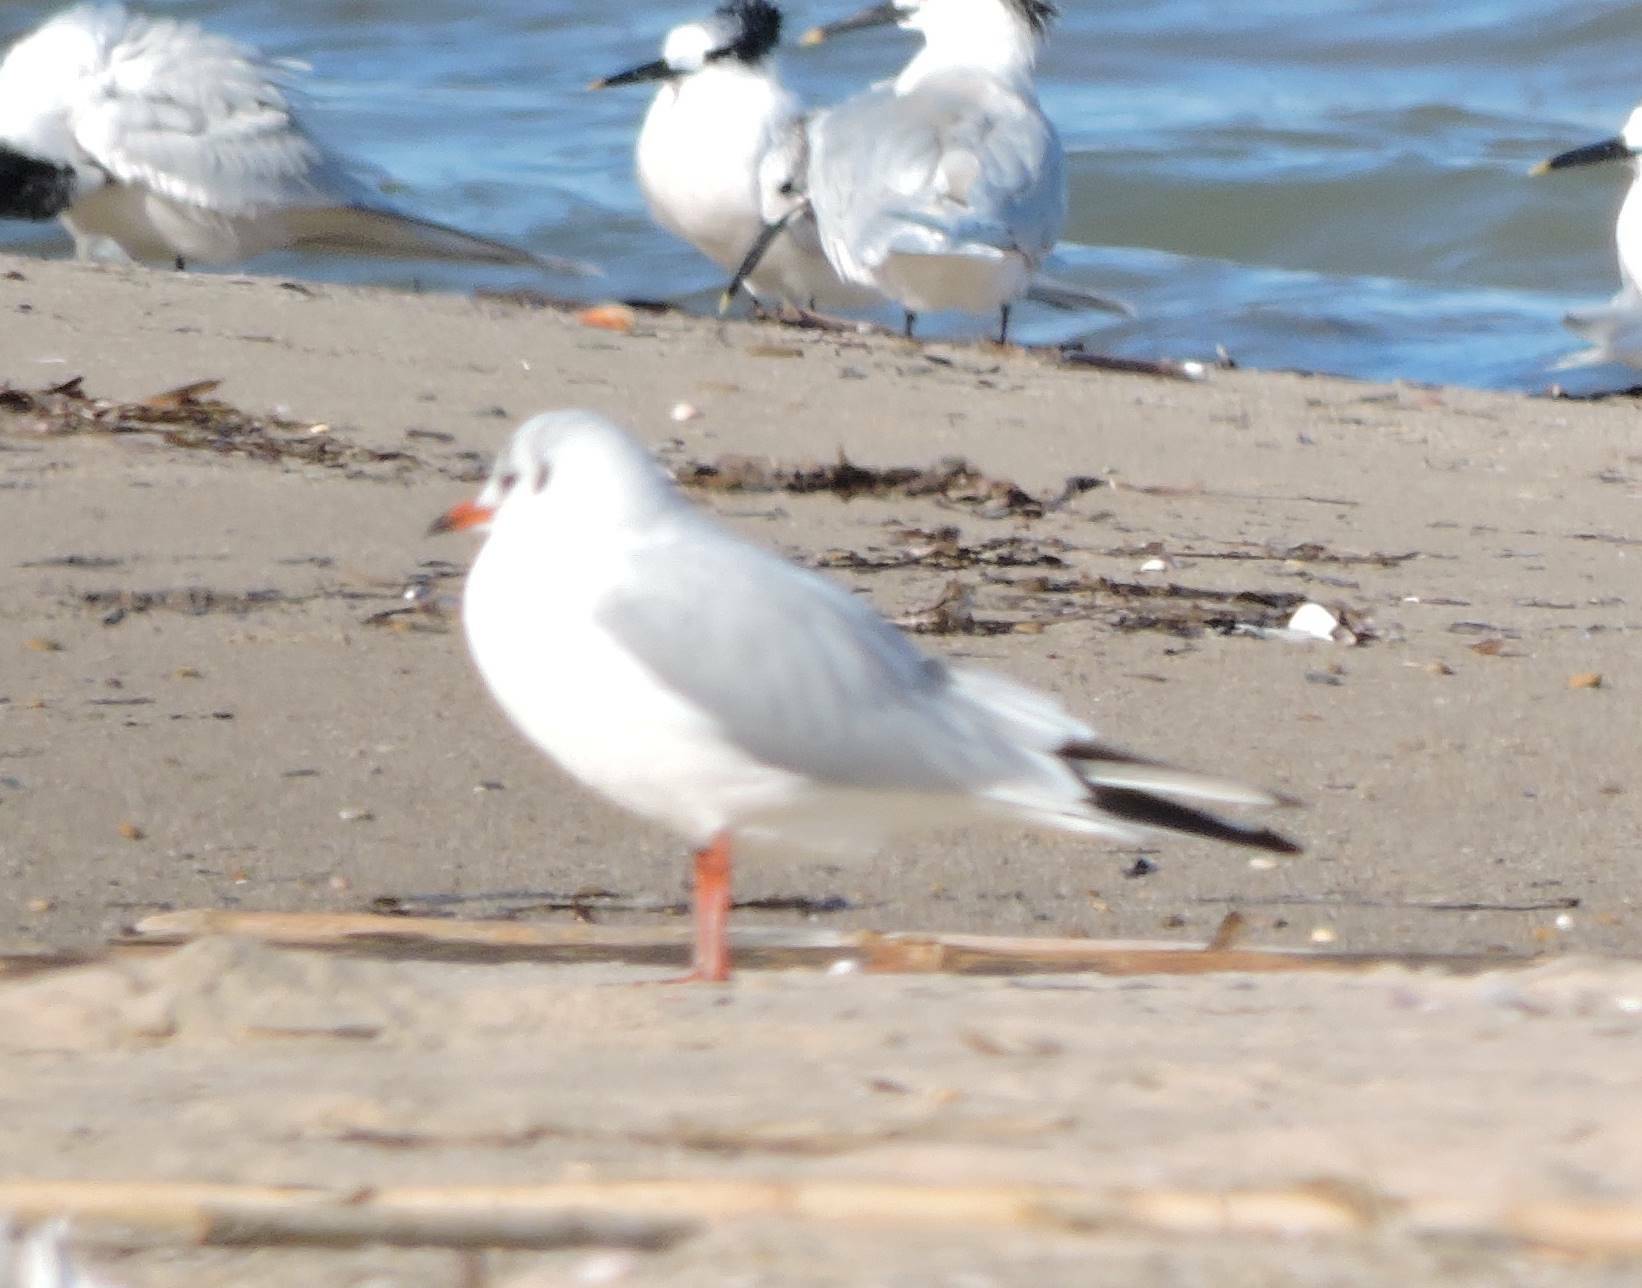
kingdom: Animalia
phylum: Chordata
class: Aves
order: Charadriiformes
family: Laridae
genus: Chroicocephalus
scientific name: Chroicocephalus ridibundus
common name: Black-headed gull
